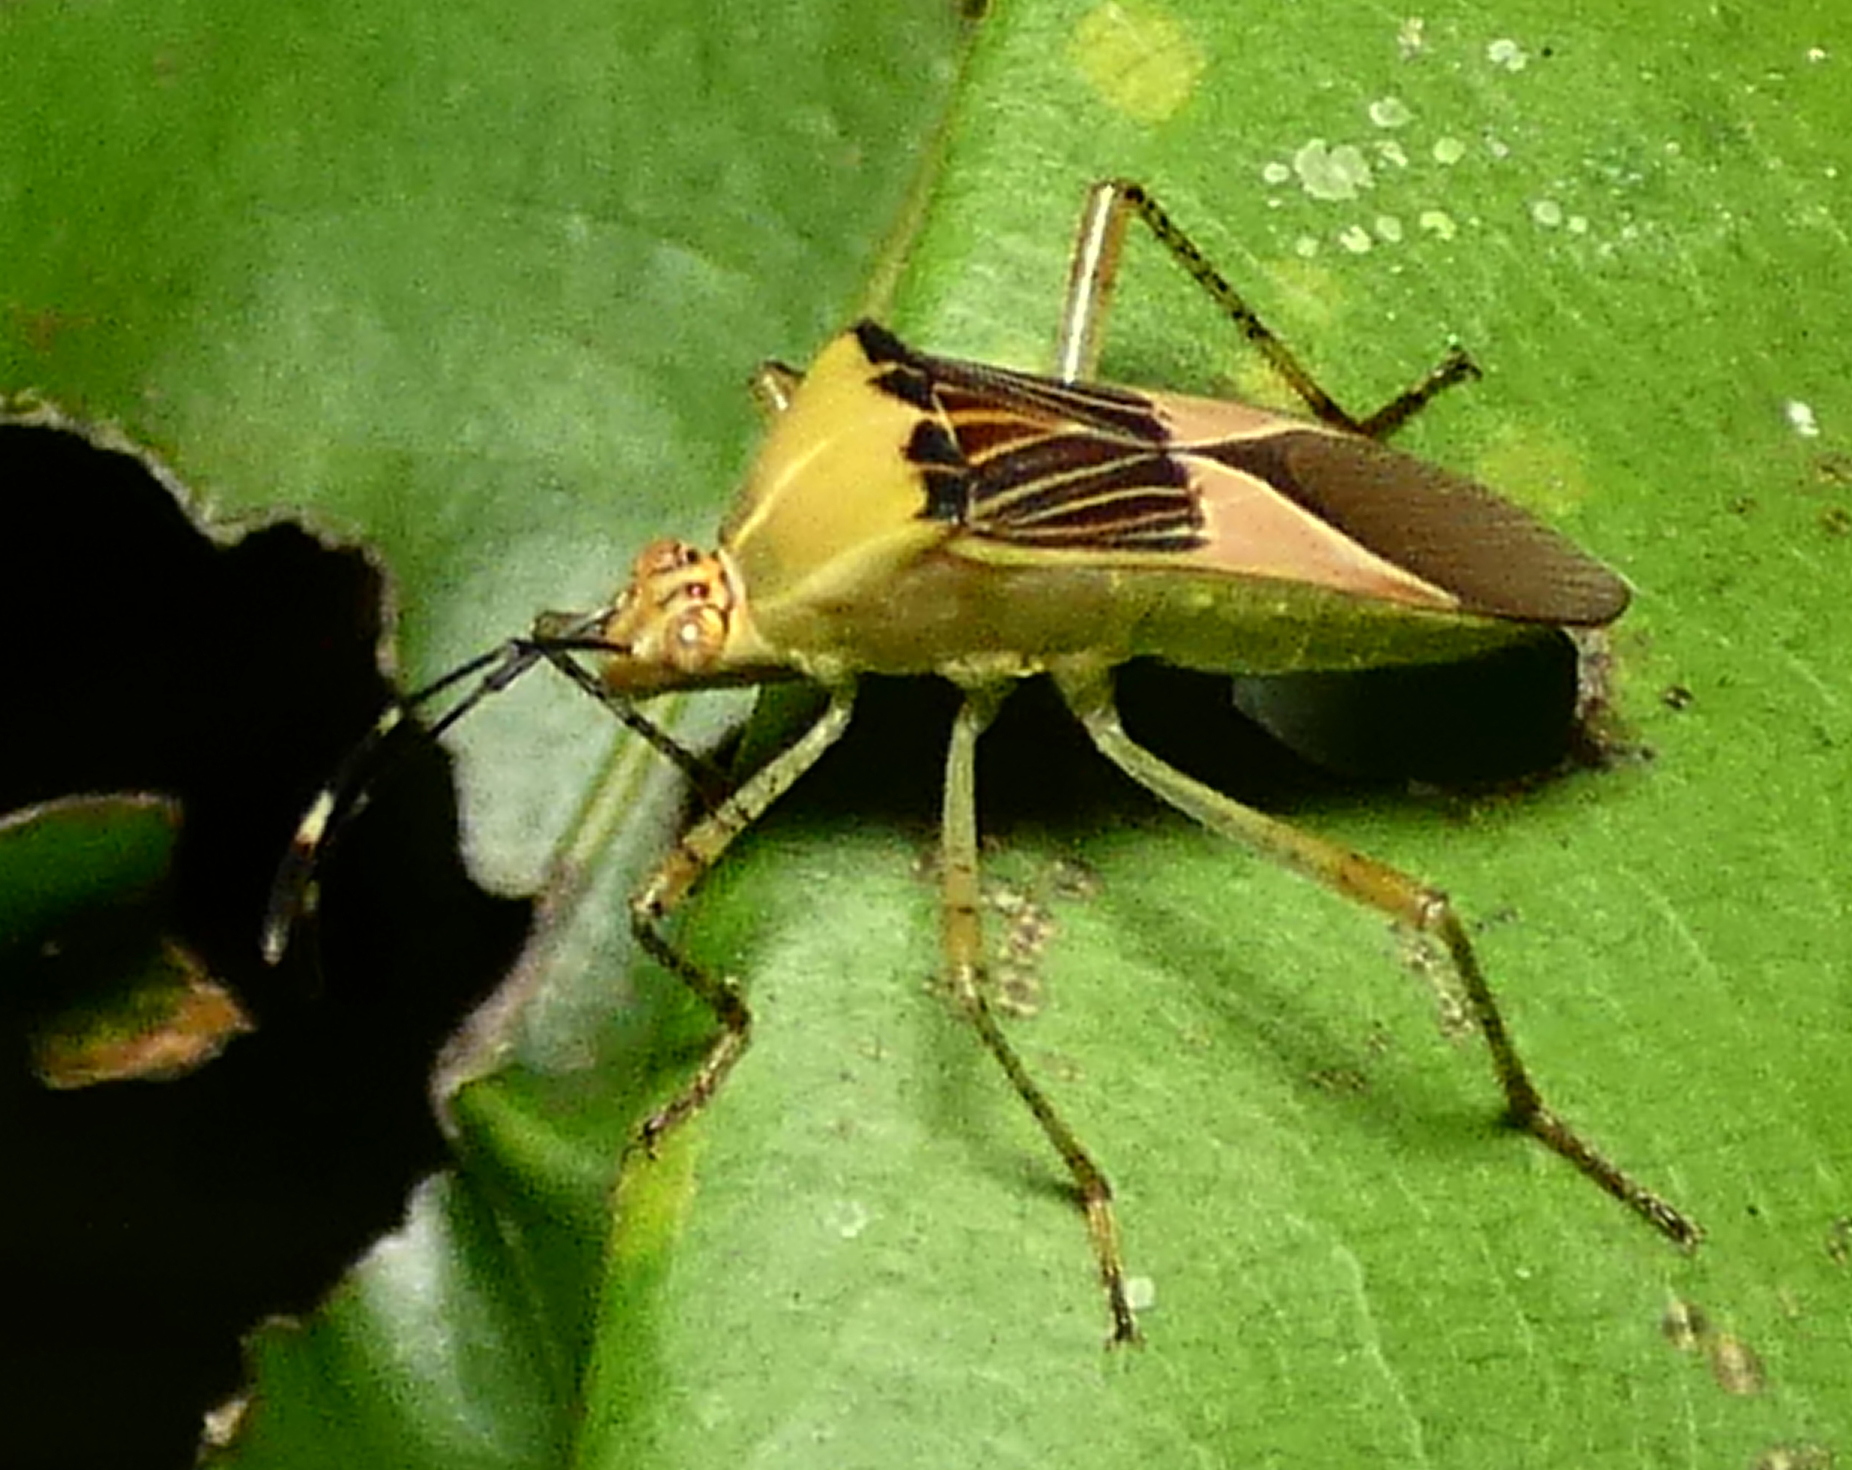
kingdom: Animalia
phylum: Arthropoda
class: Insecta
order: Hemiptera
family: Coreidae
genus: Hypselonotus
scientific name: Hypselonotus fulvus
